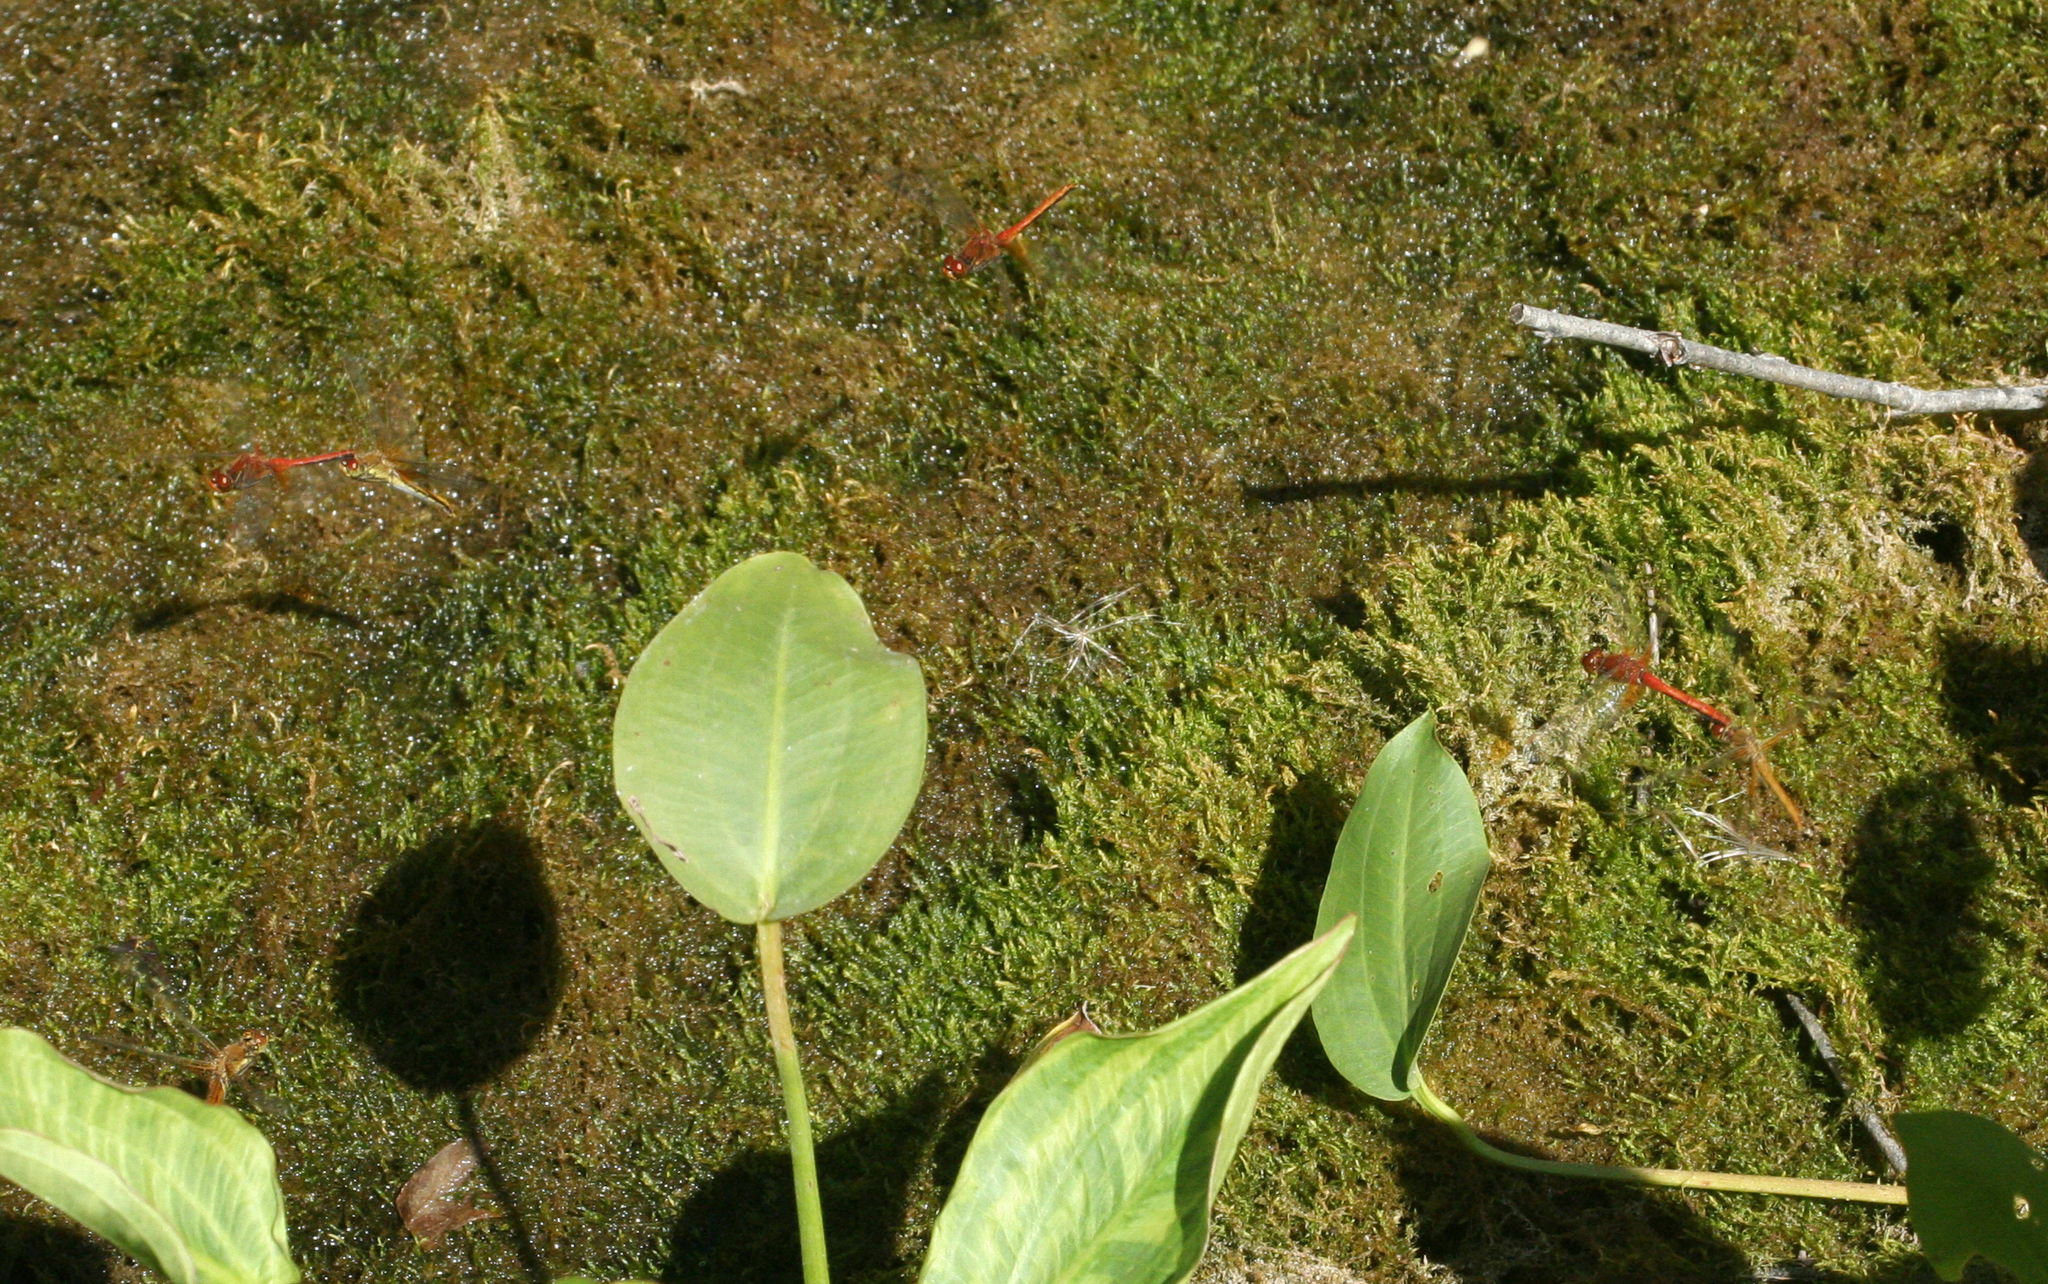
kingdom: Animalia
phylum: Arthropoda
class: Insecta
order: Odonata
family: Libellulidae
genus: Sympetrum
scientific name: Sympetrum flaveolum
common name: Yellow-winged darter
